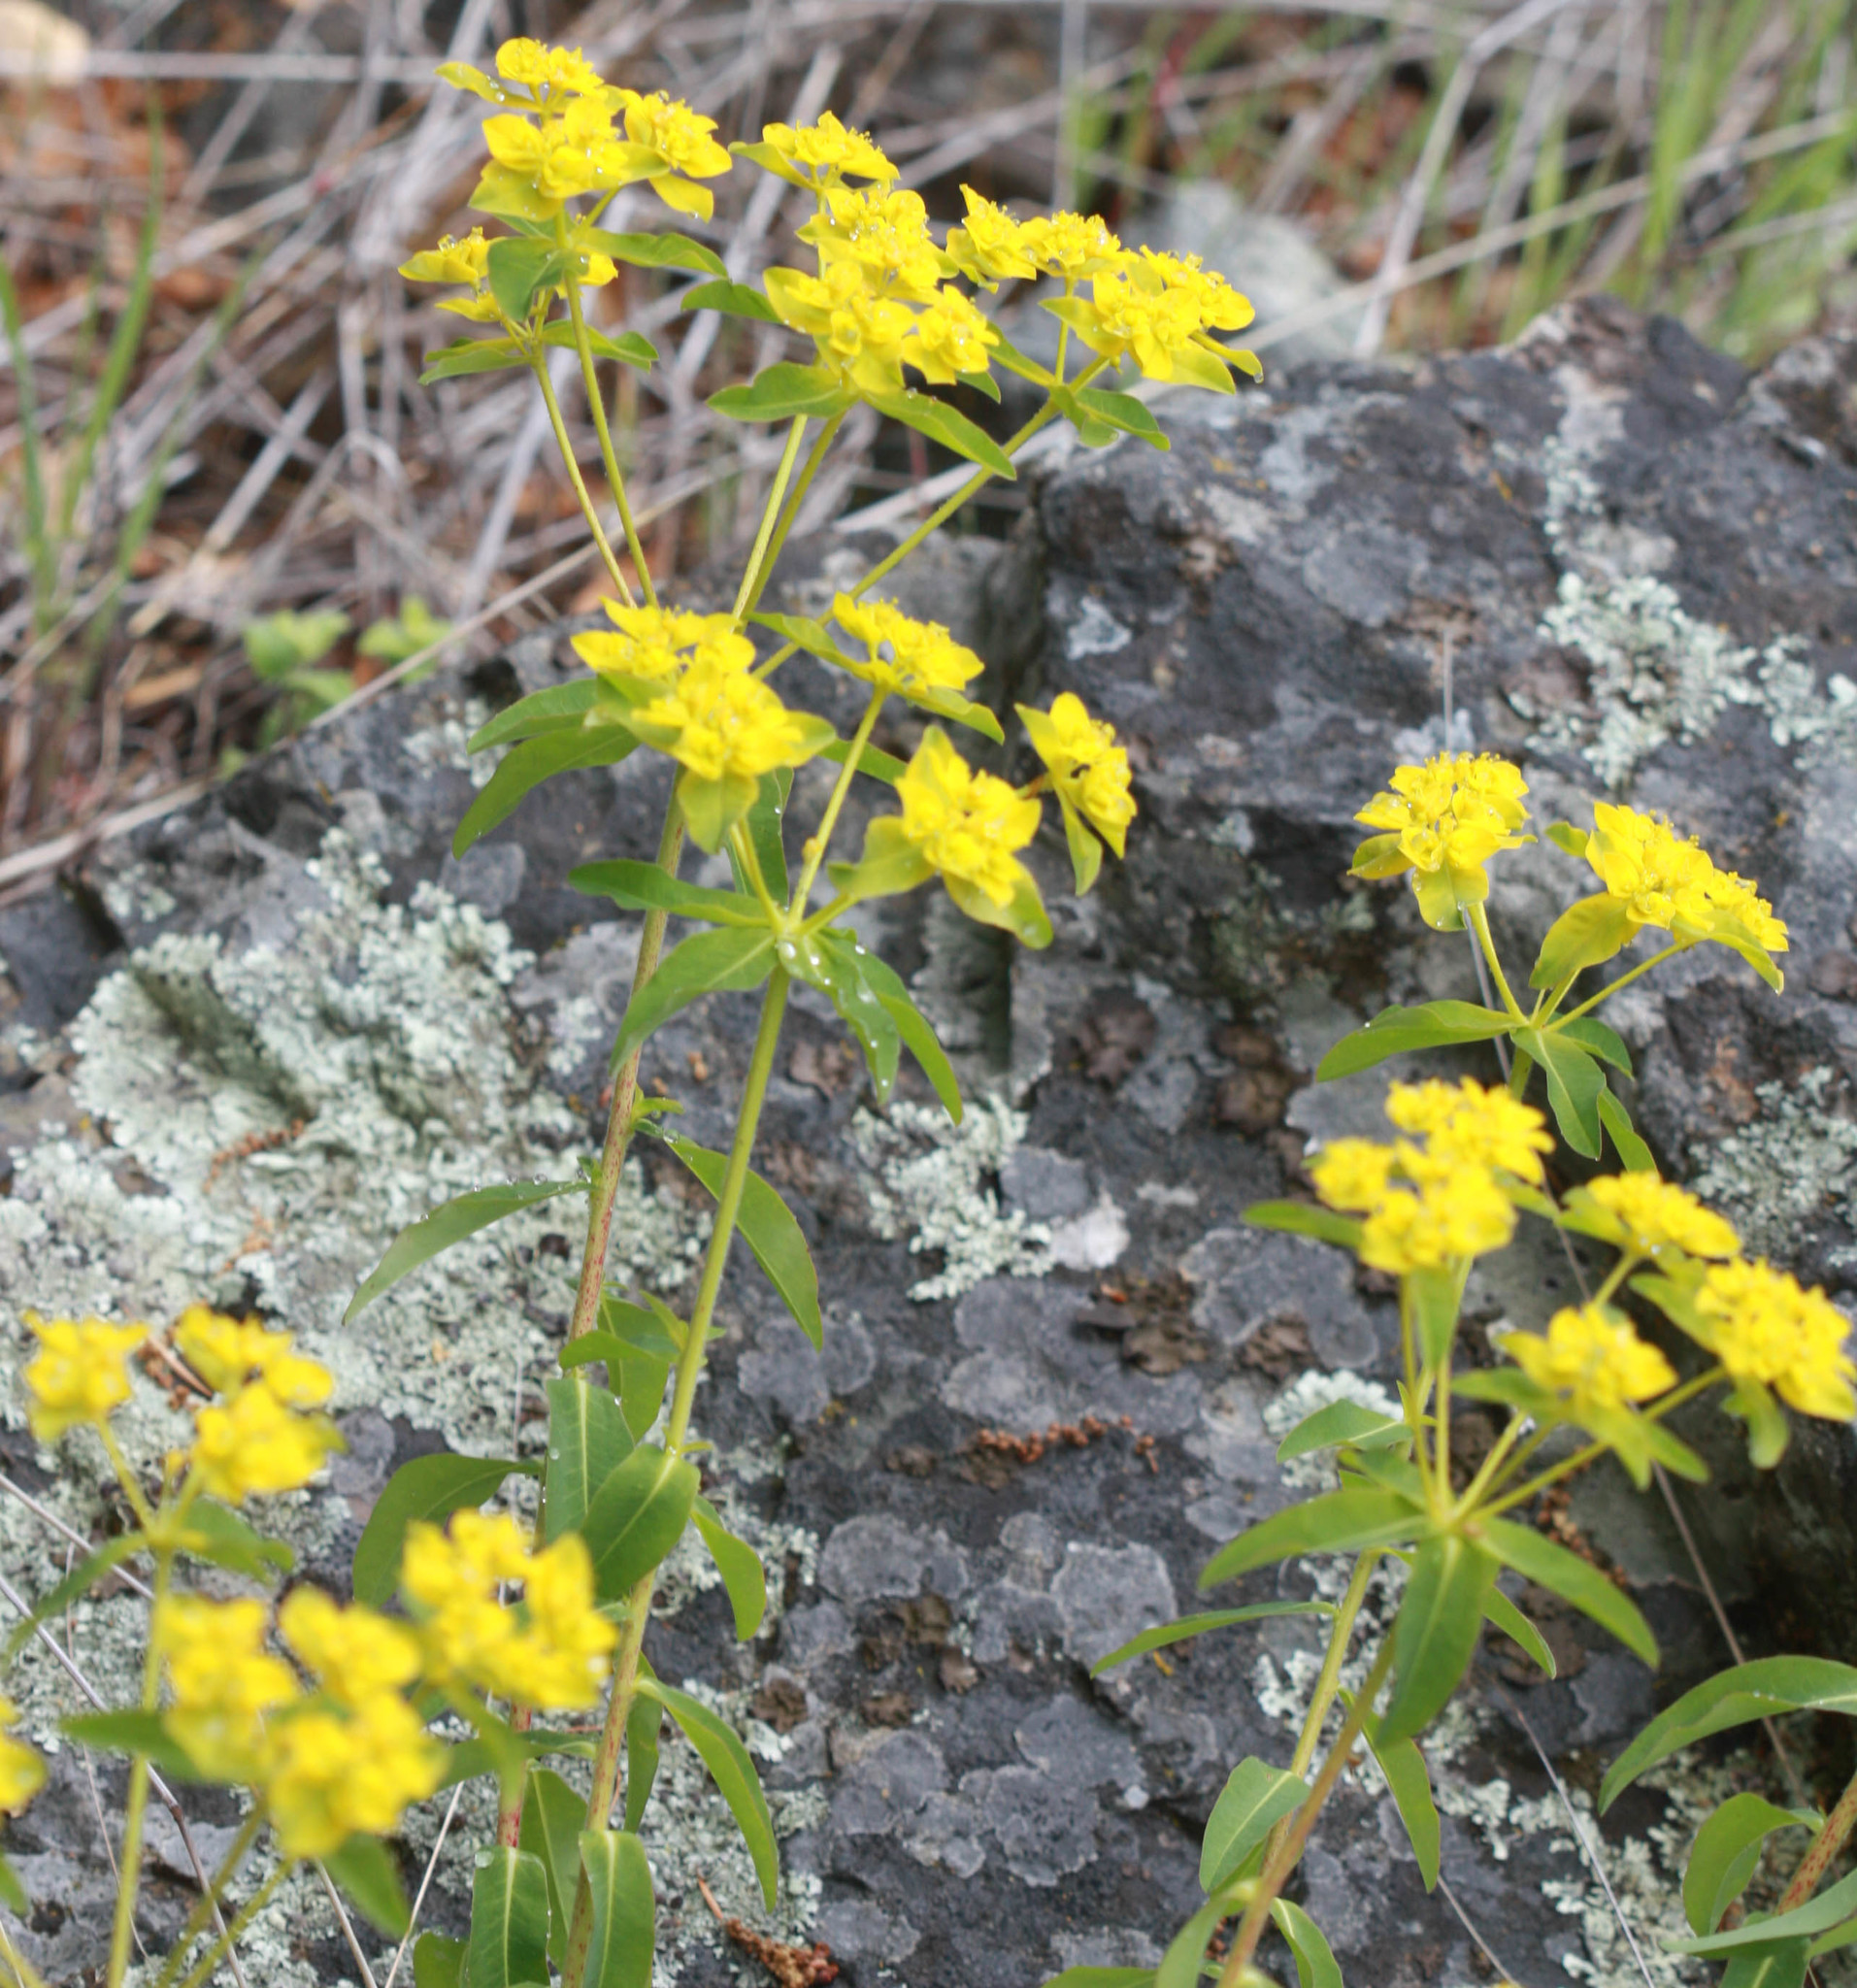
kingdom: Plantae
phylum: Tracheophyta
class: Magnoliopsida
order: Malpighiales
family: Euphorbiaceae
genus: Euphorbia
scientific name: Euphorbia oblongata
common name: Balkan spurge
